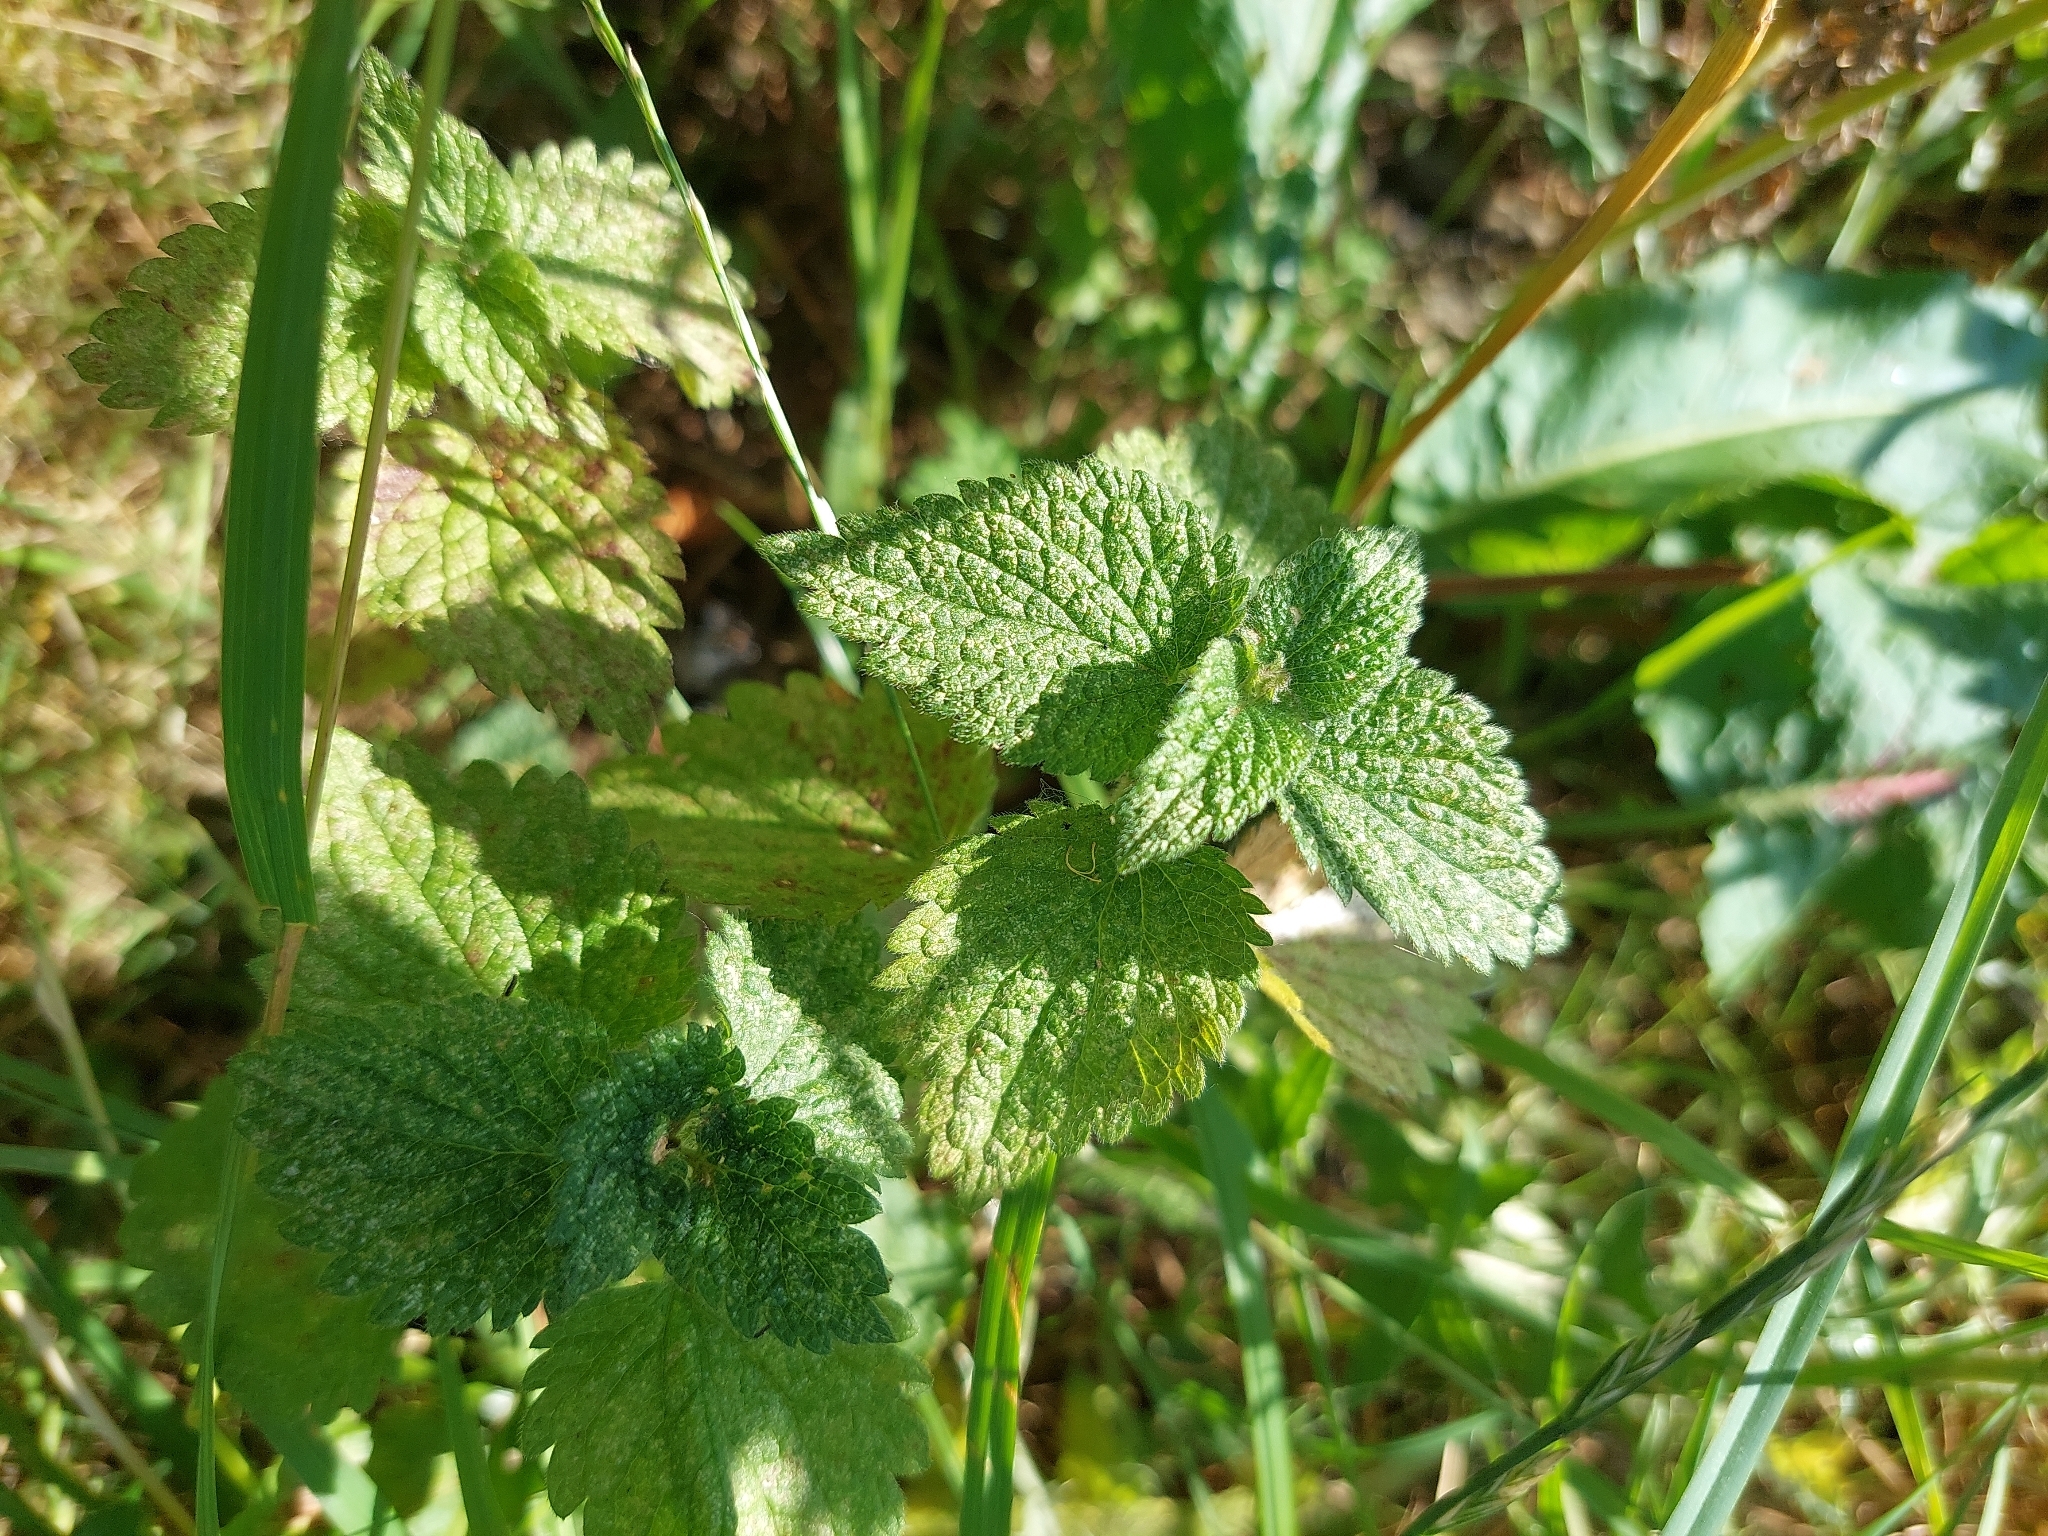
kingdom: Plantae
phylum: Tracheophyta
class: Magnoliopsida
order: Lamiales
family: Lamiaceae
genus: Teucrium
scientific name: Teucrium scorodonia
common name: Woodland germander
